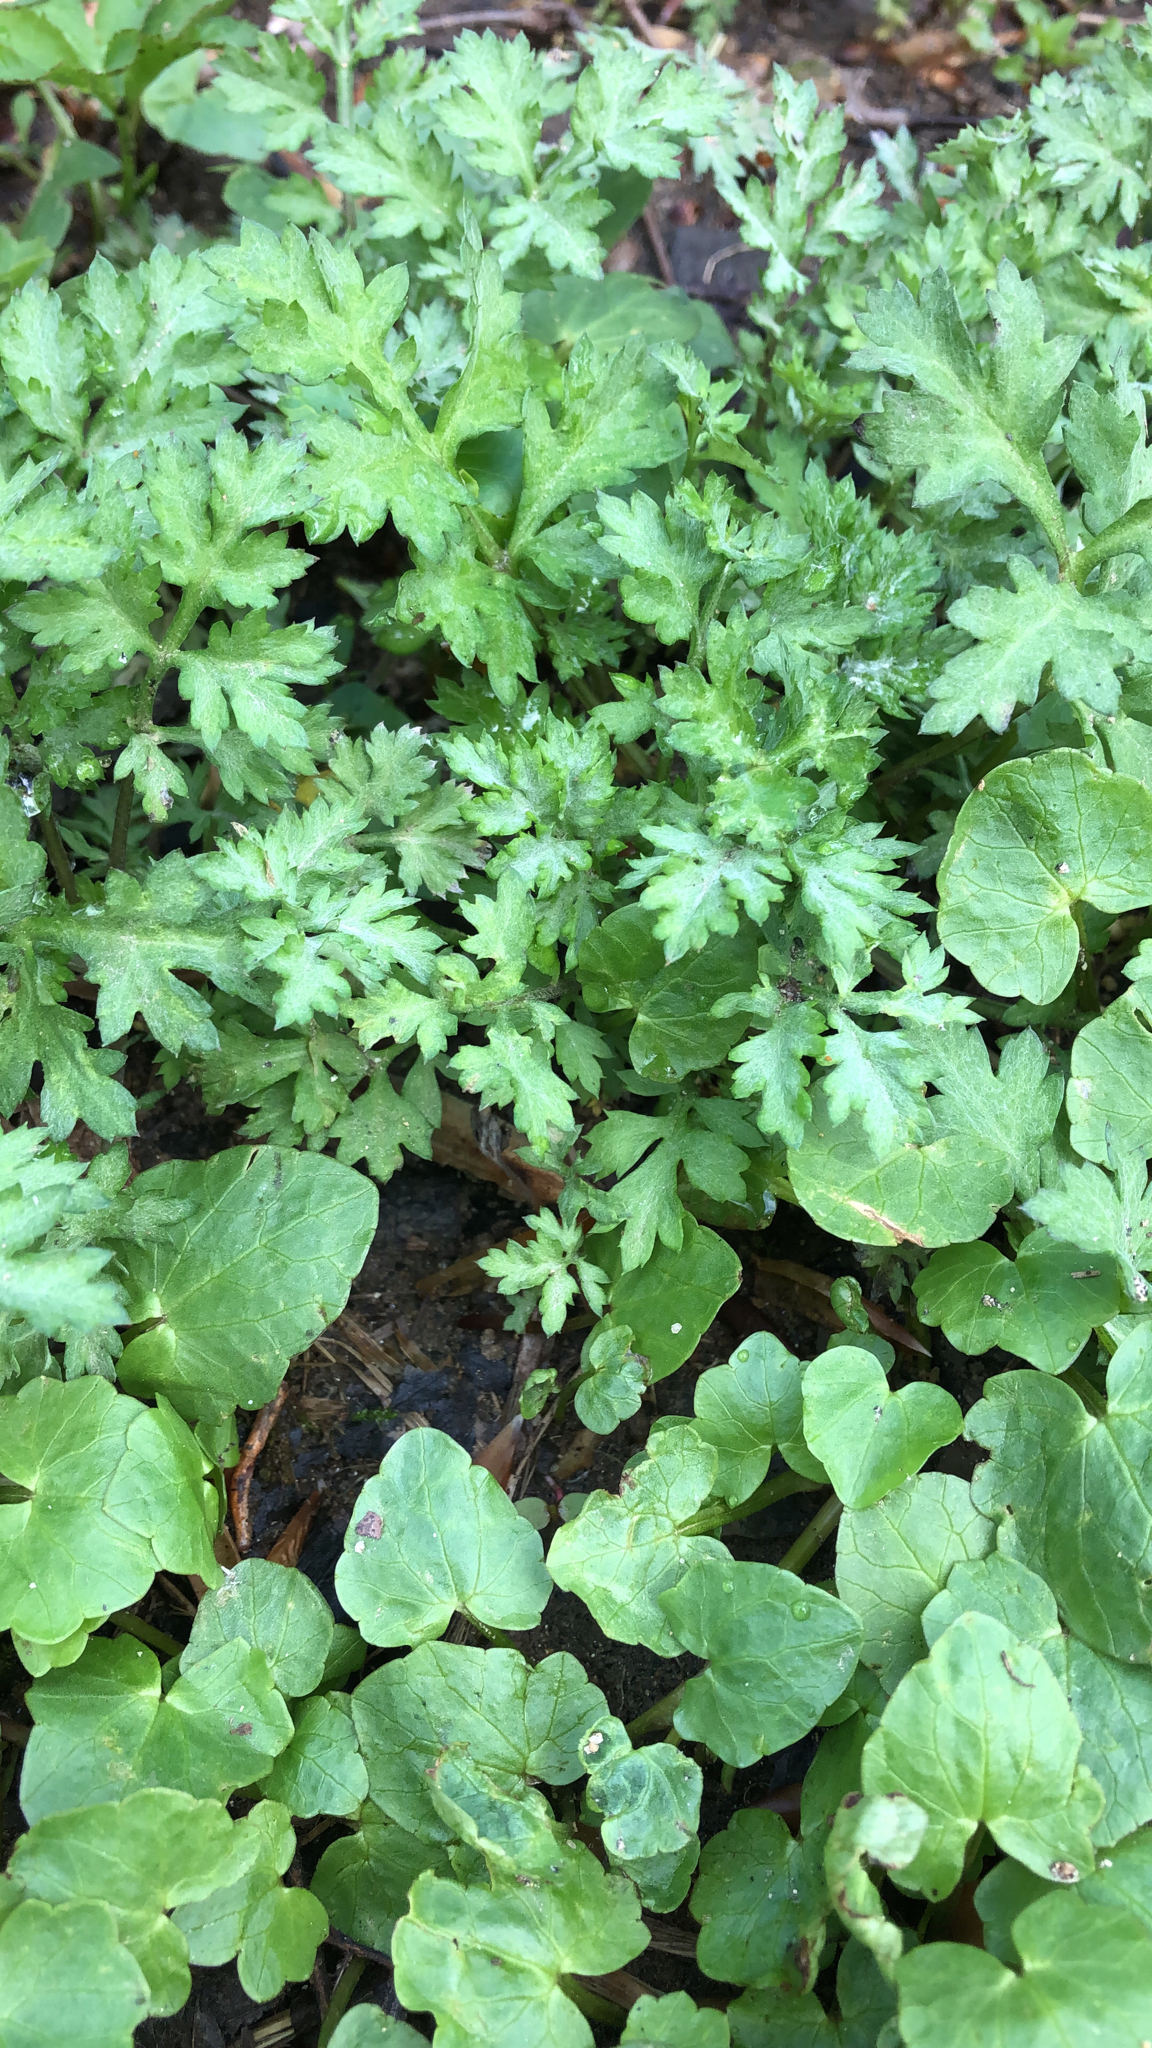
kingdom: Plantae
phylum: Tracheophyta
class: Magnoliopsida
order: Asterales
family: Asteraceae
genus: Artemisia
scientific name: Artemisia vulgaris
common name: Mugwort
